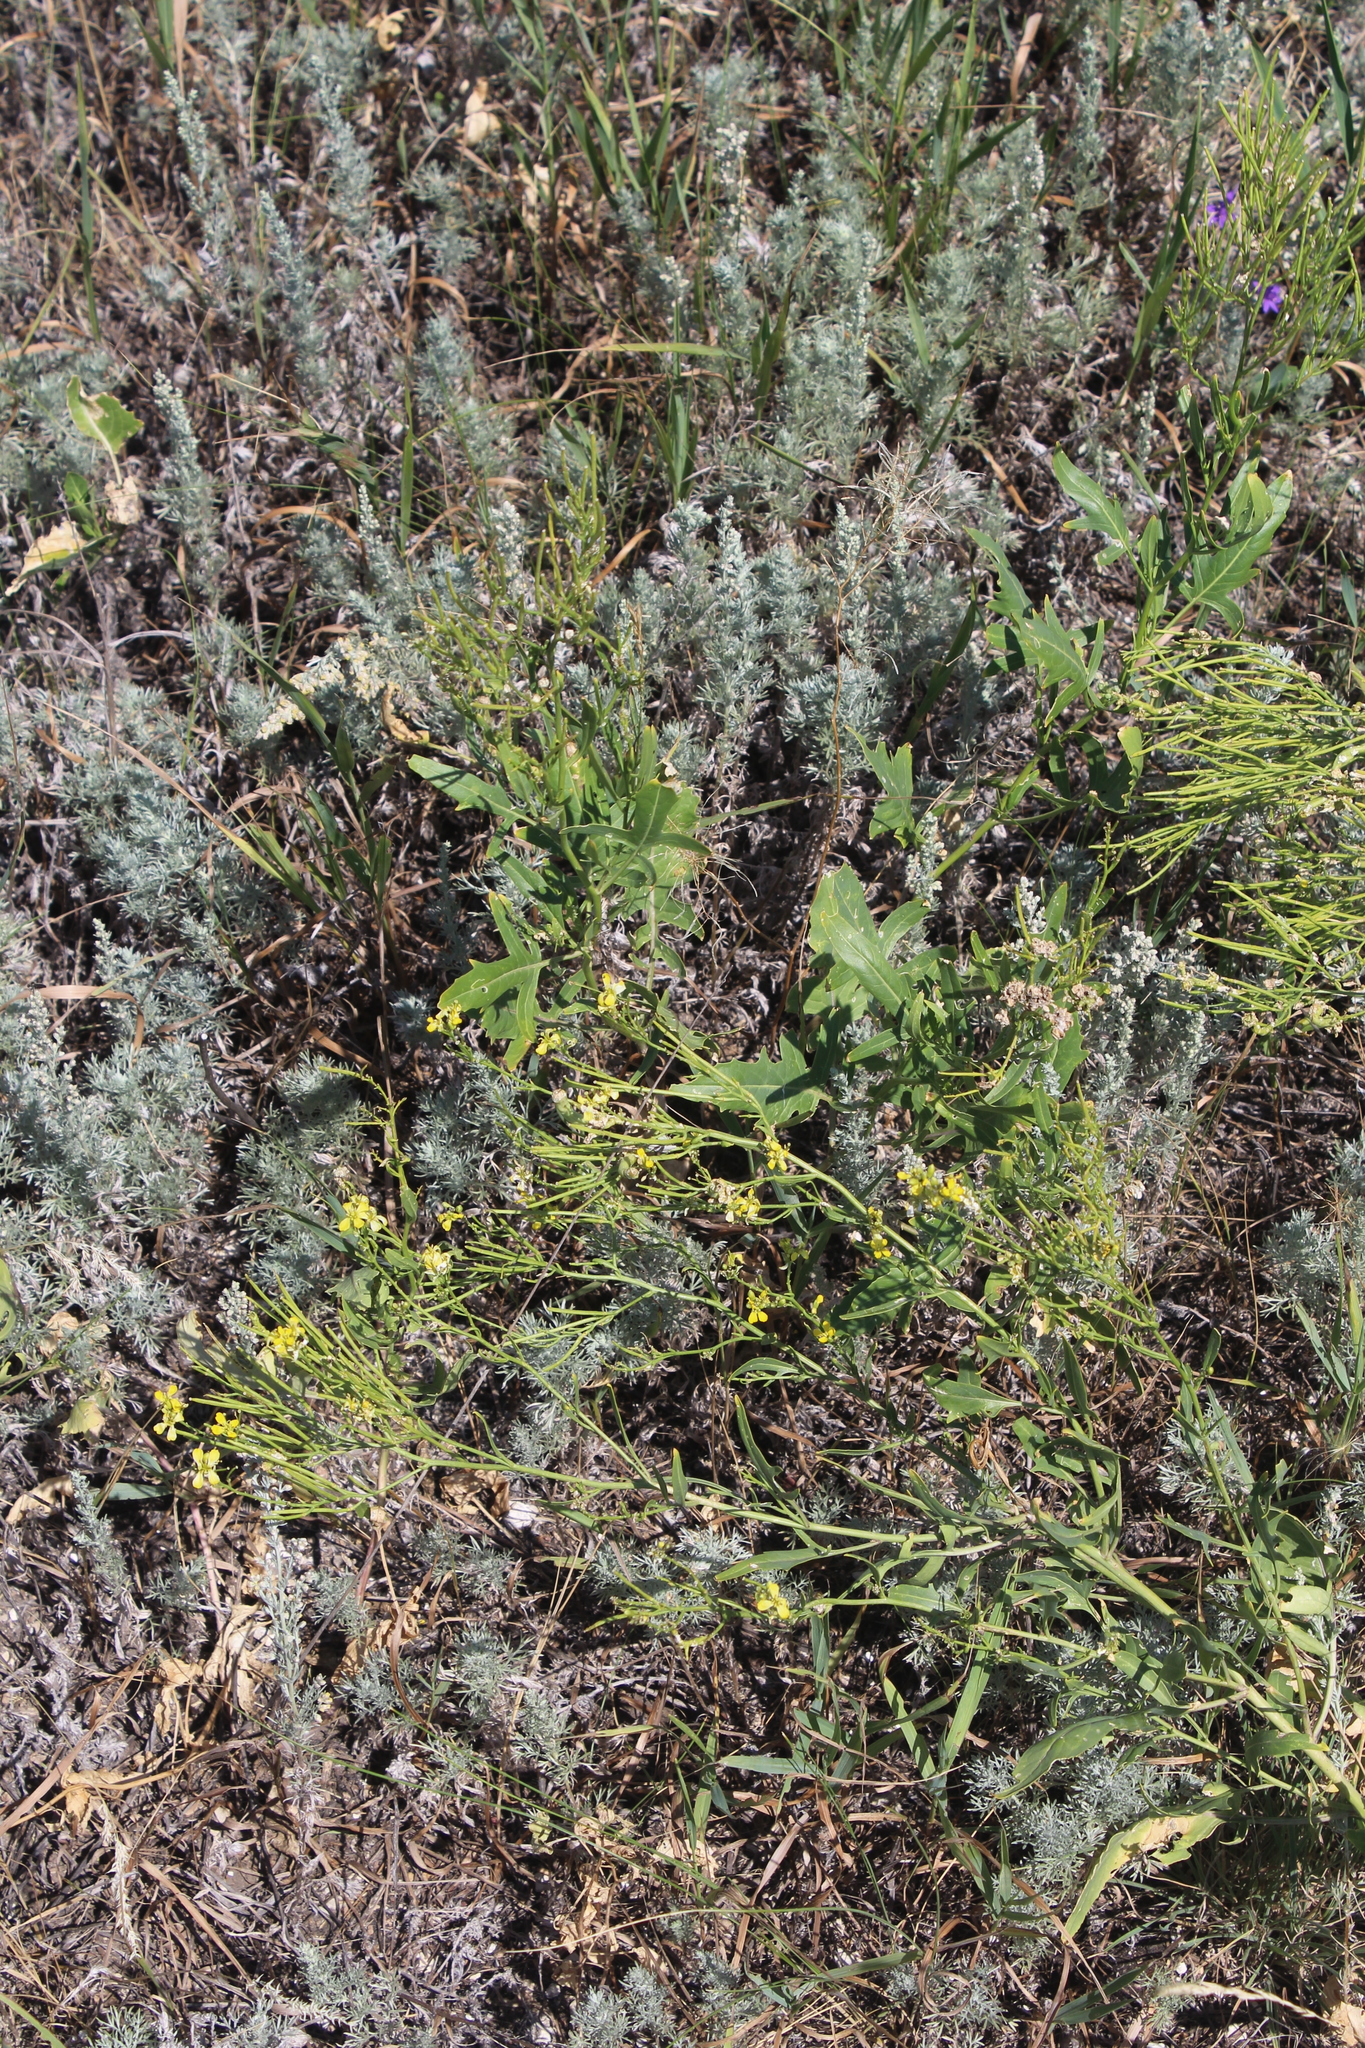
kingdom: Plantae
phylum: Tracheophyta
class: Magnoliopsida
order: Brassicales
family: Brassicaceae
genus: Sisymbrium
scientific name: Sisymbrium volgense
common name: Russian mustard
